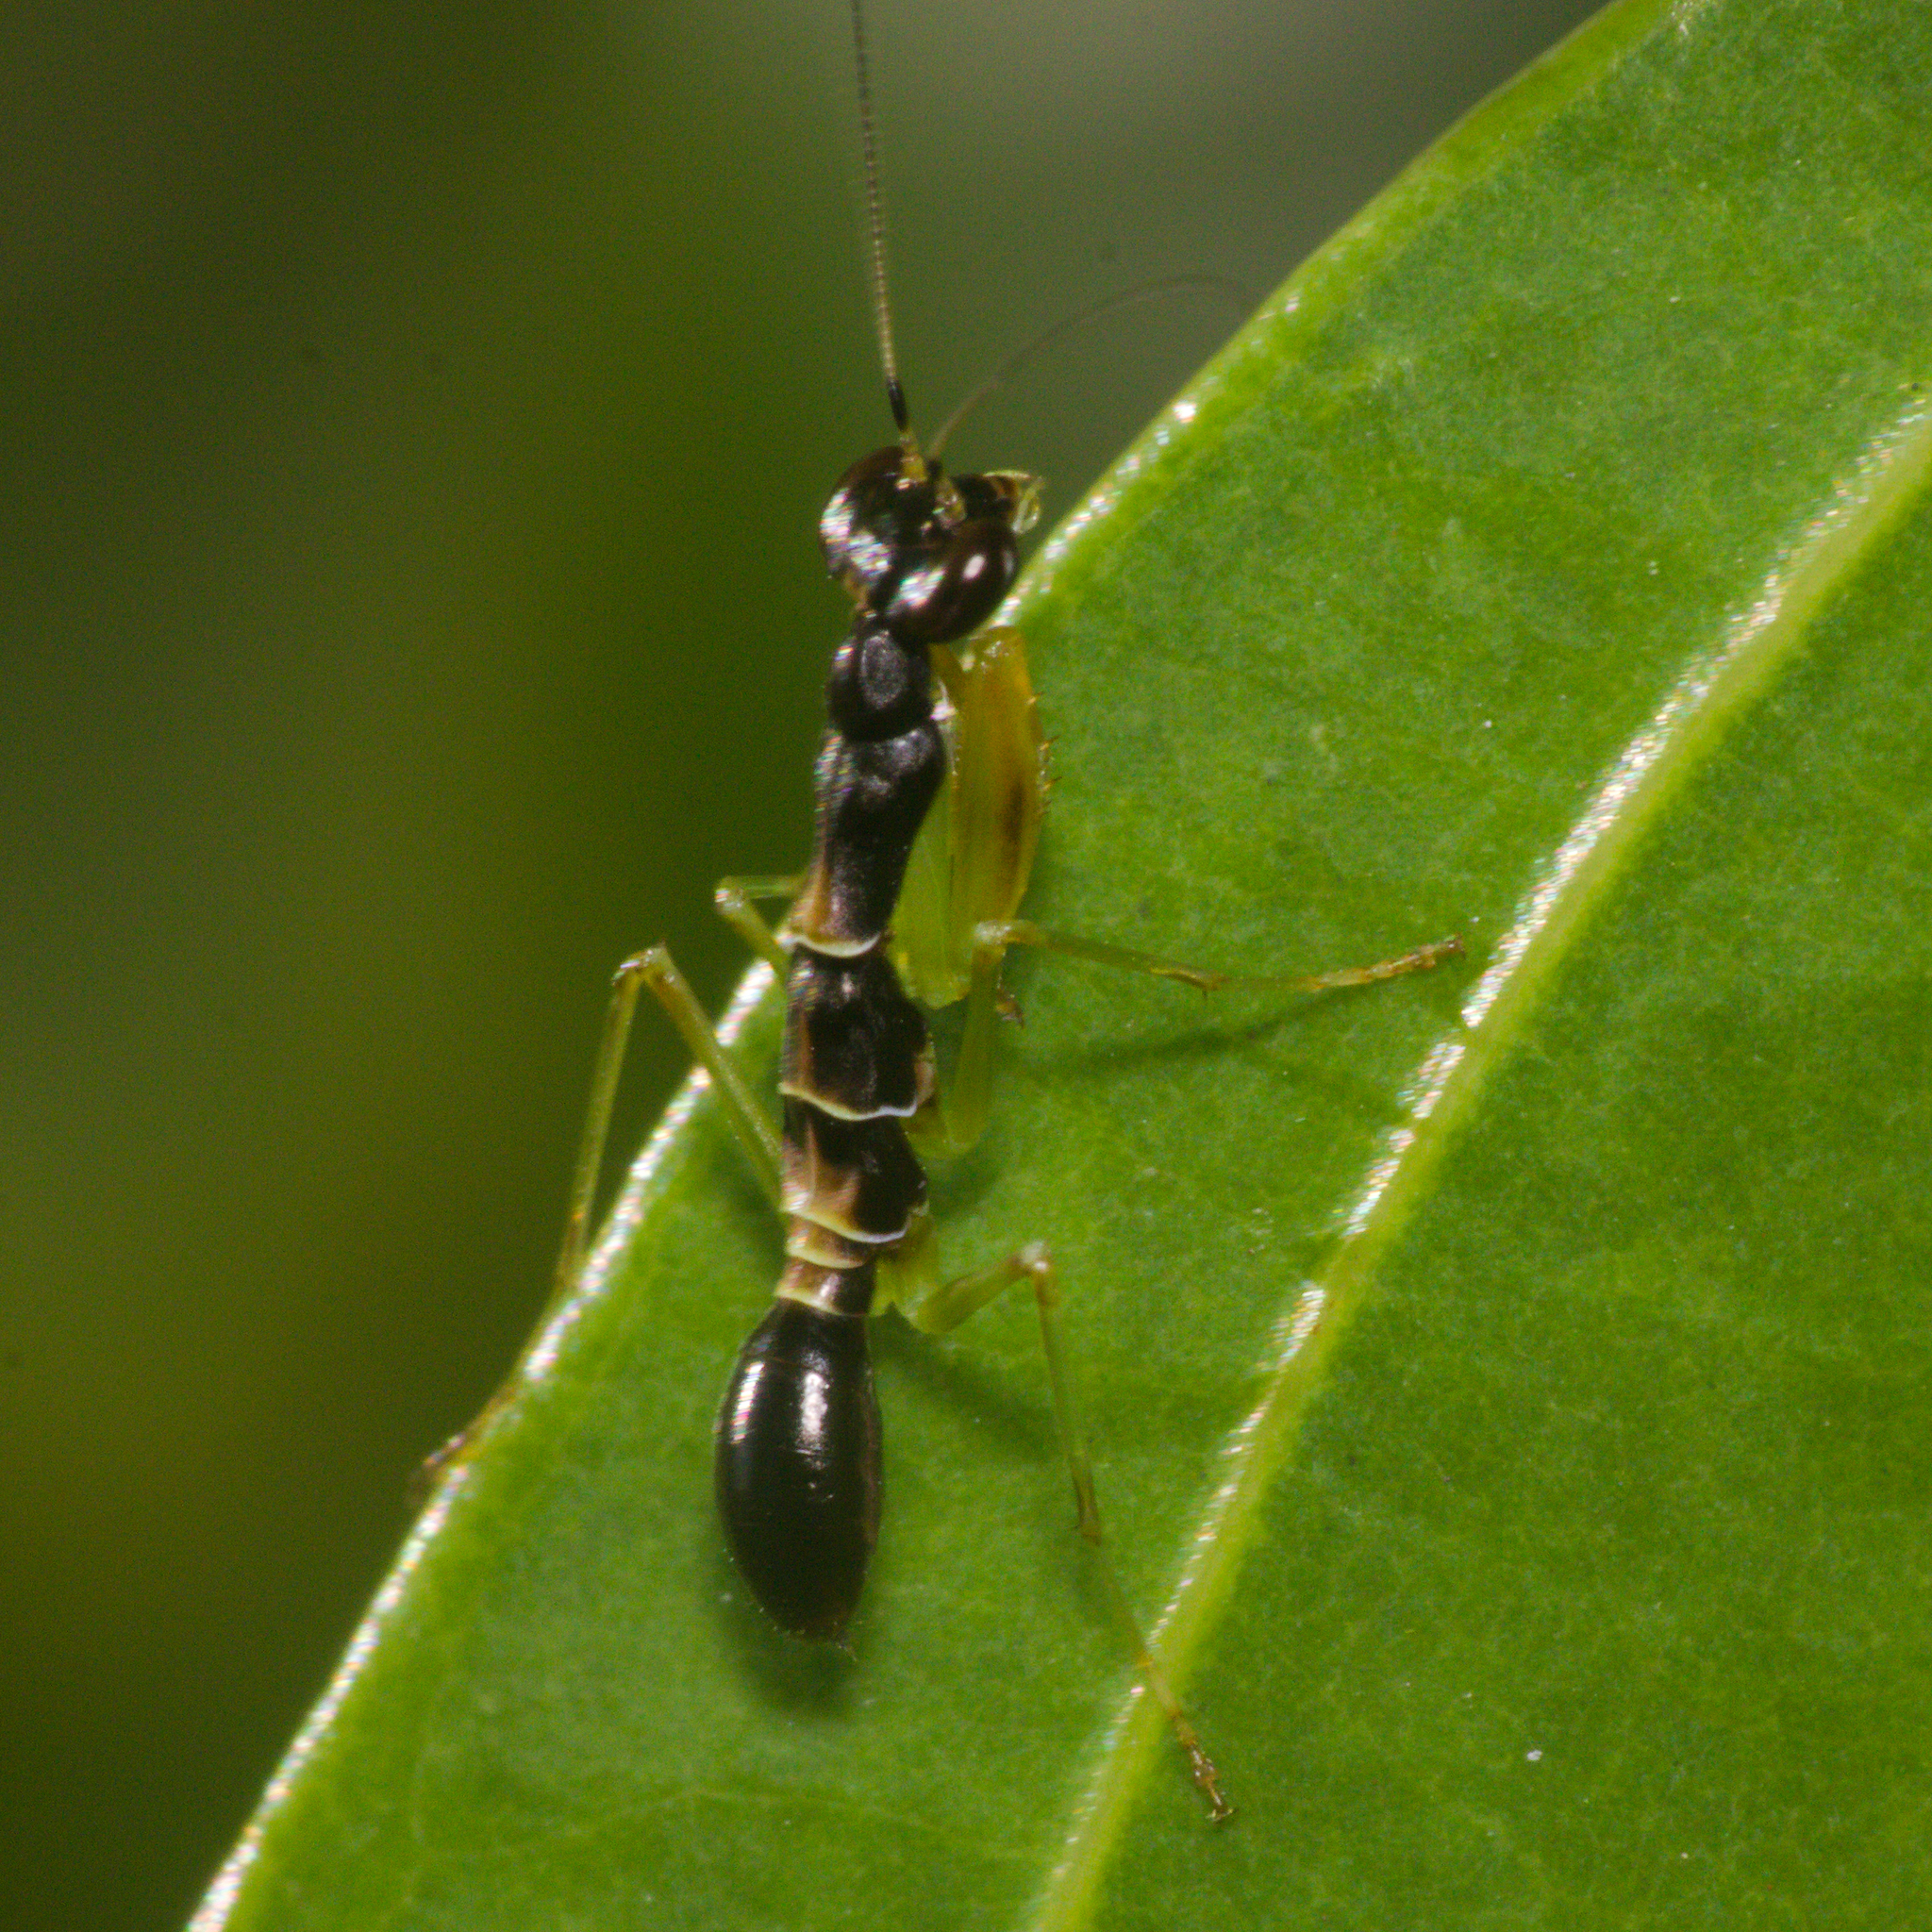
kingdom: Animalia
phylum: Arthropoda
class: Insecta
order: Mantodea
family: Hymenopodidae
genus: Odontomantis
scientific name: Odontomantis planiceps
